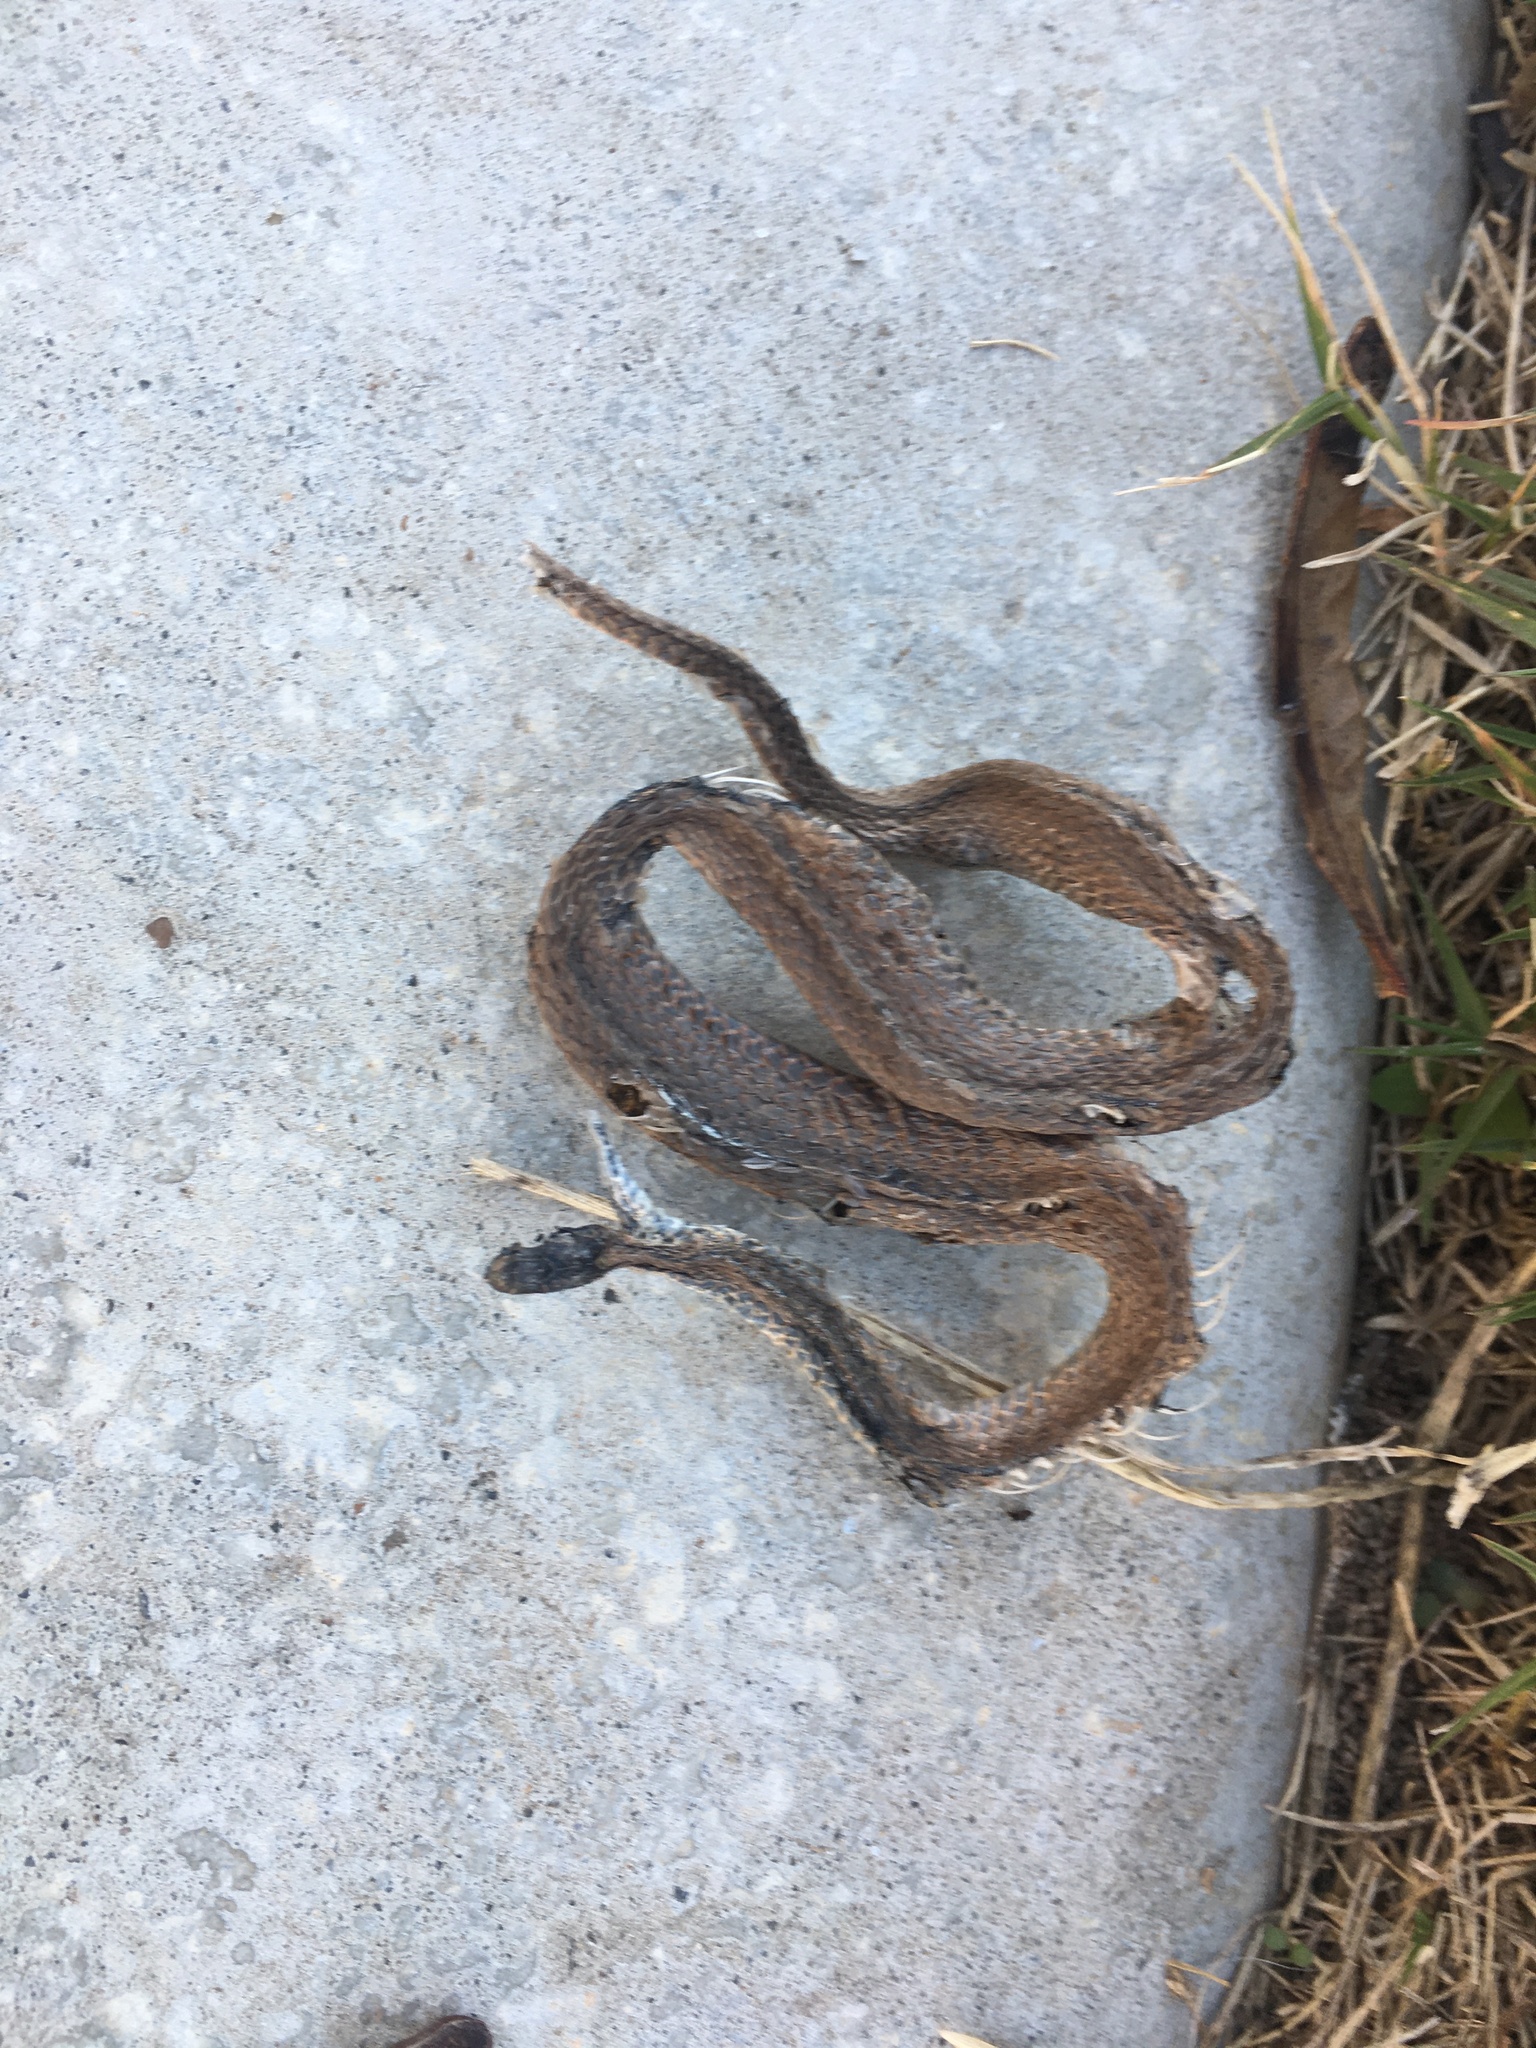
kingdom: Animalia
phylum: Chordata
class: Squamata
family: Colubridae
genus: Storeria
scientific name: Storeria dekayi
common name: (dekay’s) brown snake
